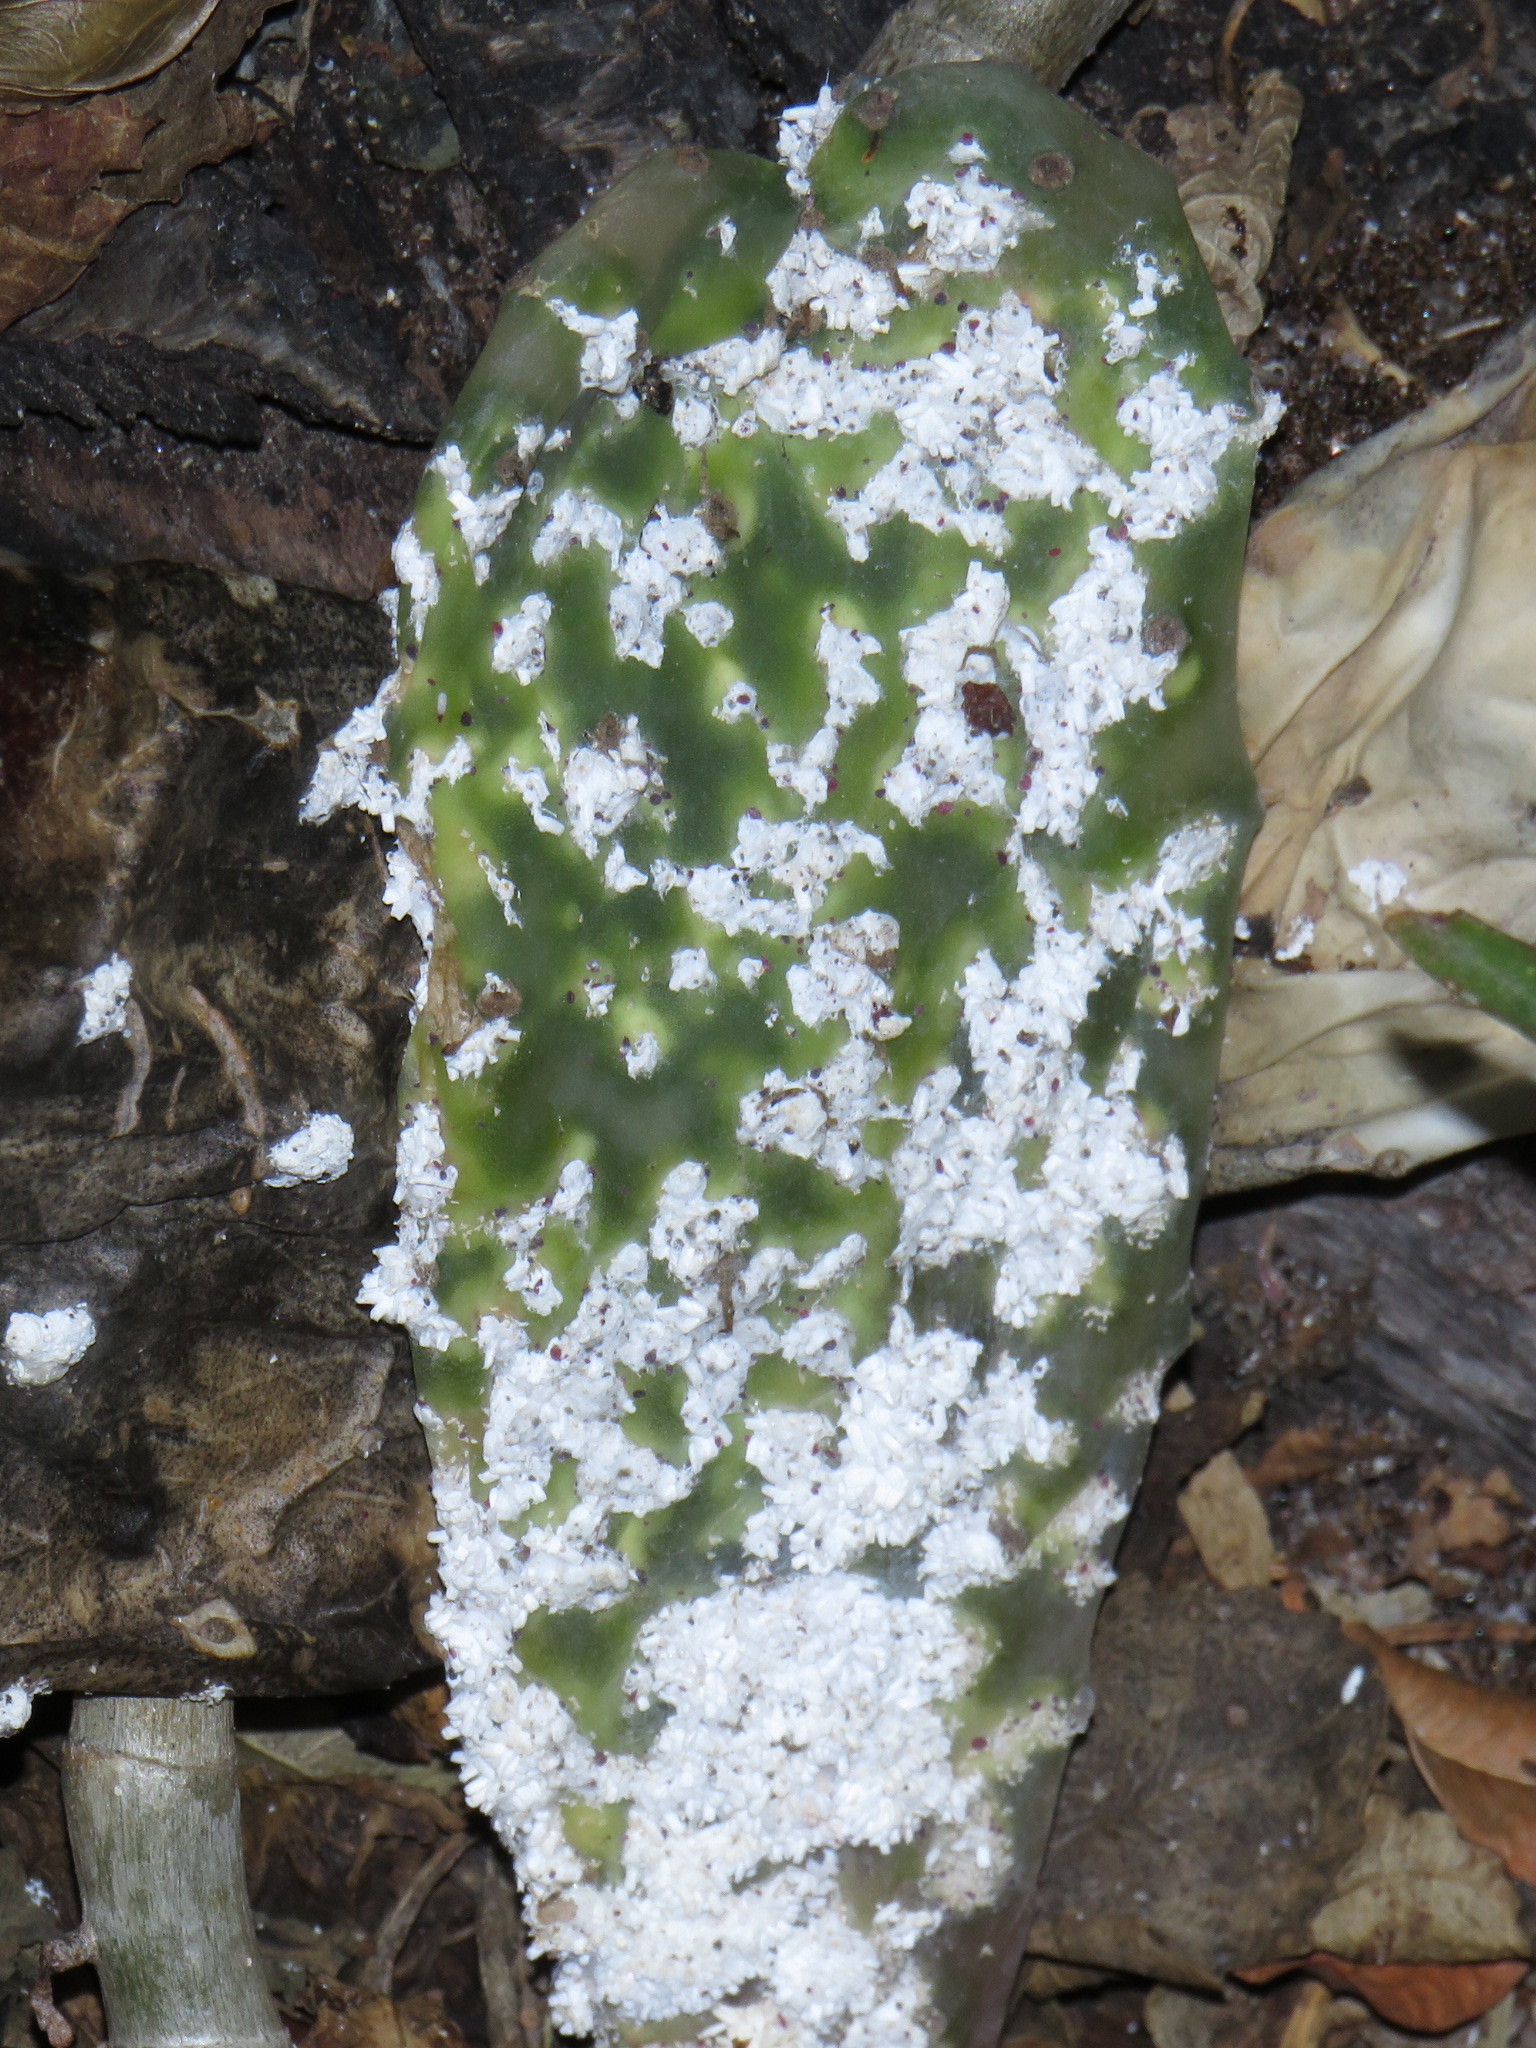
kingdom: Plantae
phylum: Tracheophyta
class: Magnoliopsida
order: Caryophyllales
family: Cactaceae
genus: Opuntia
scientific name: Opuntia ficus-indica
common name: Barbary fig
